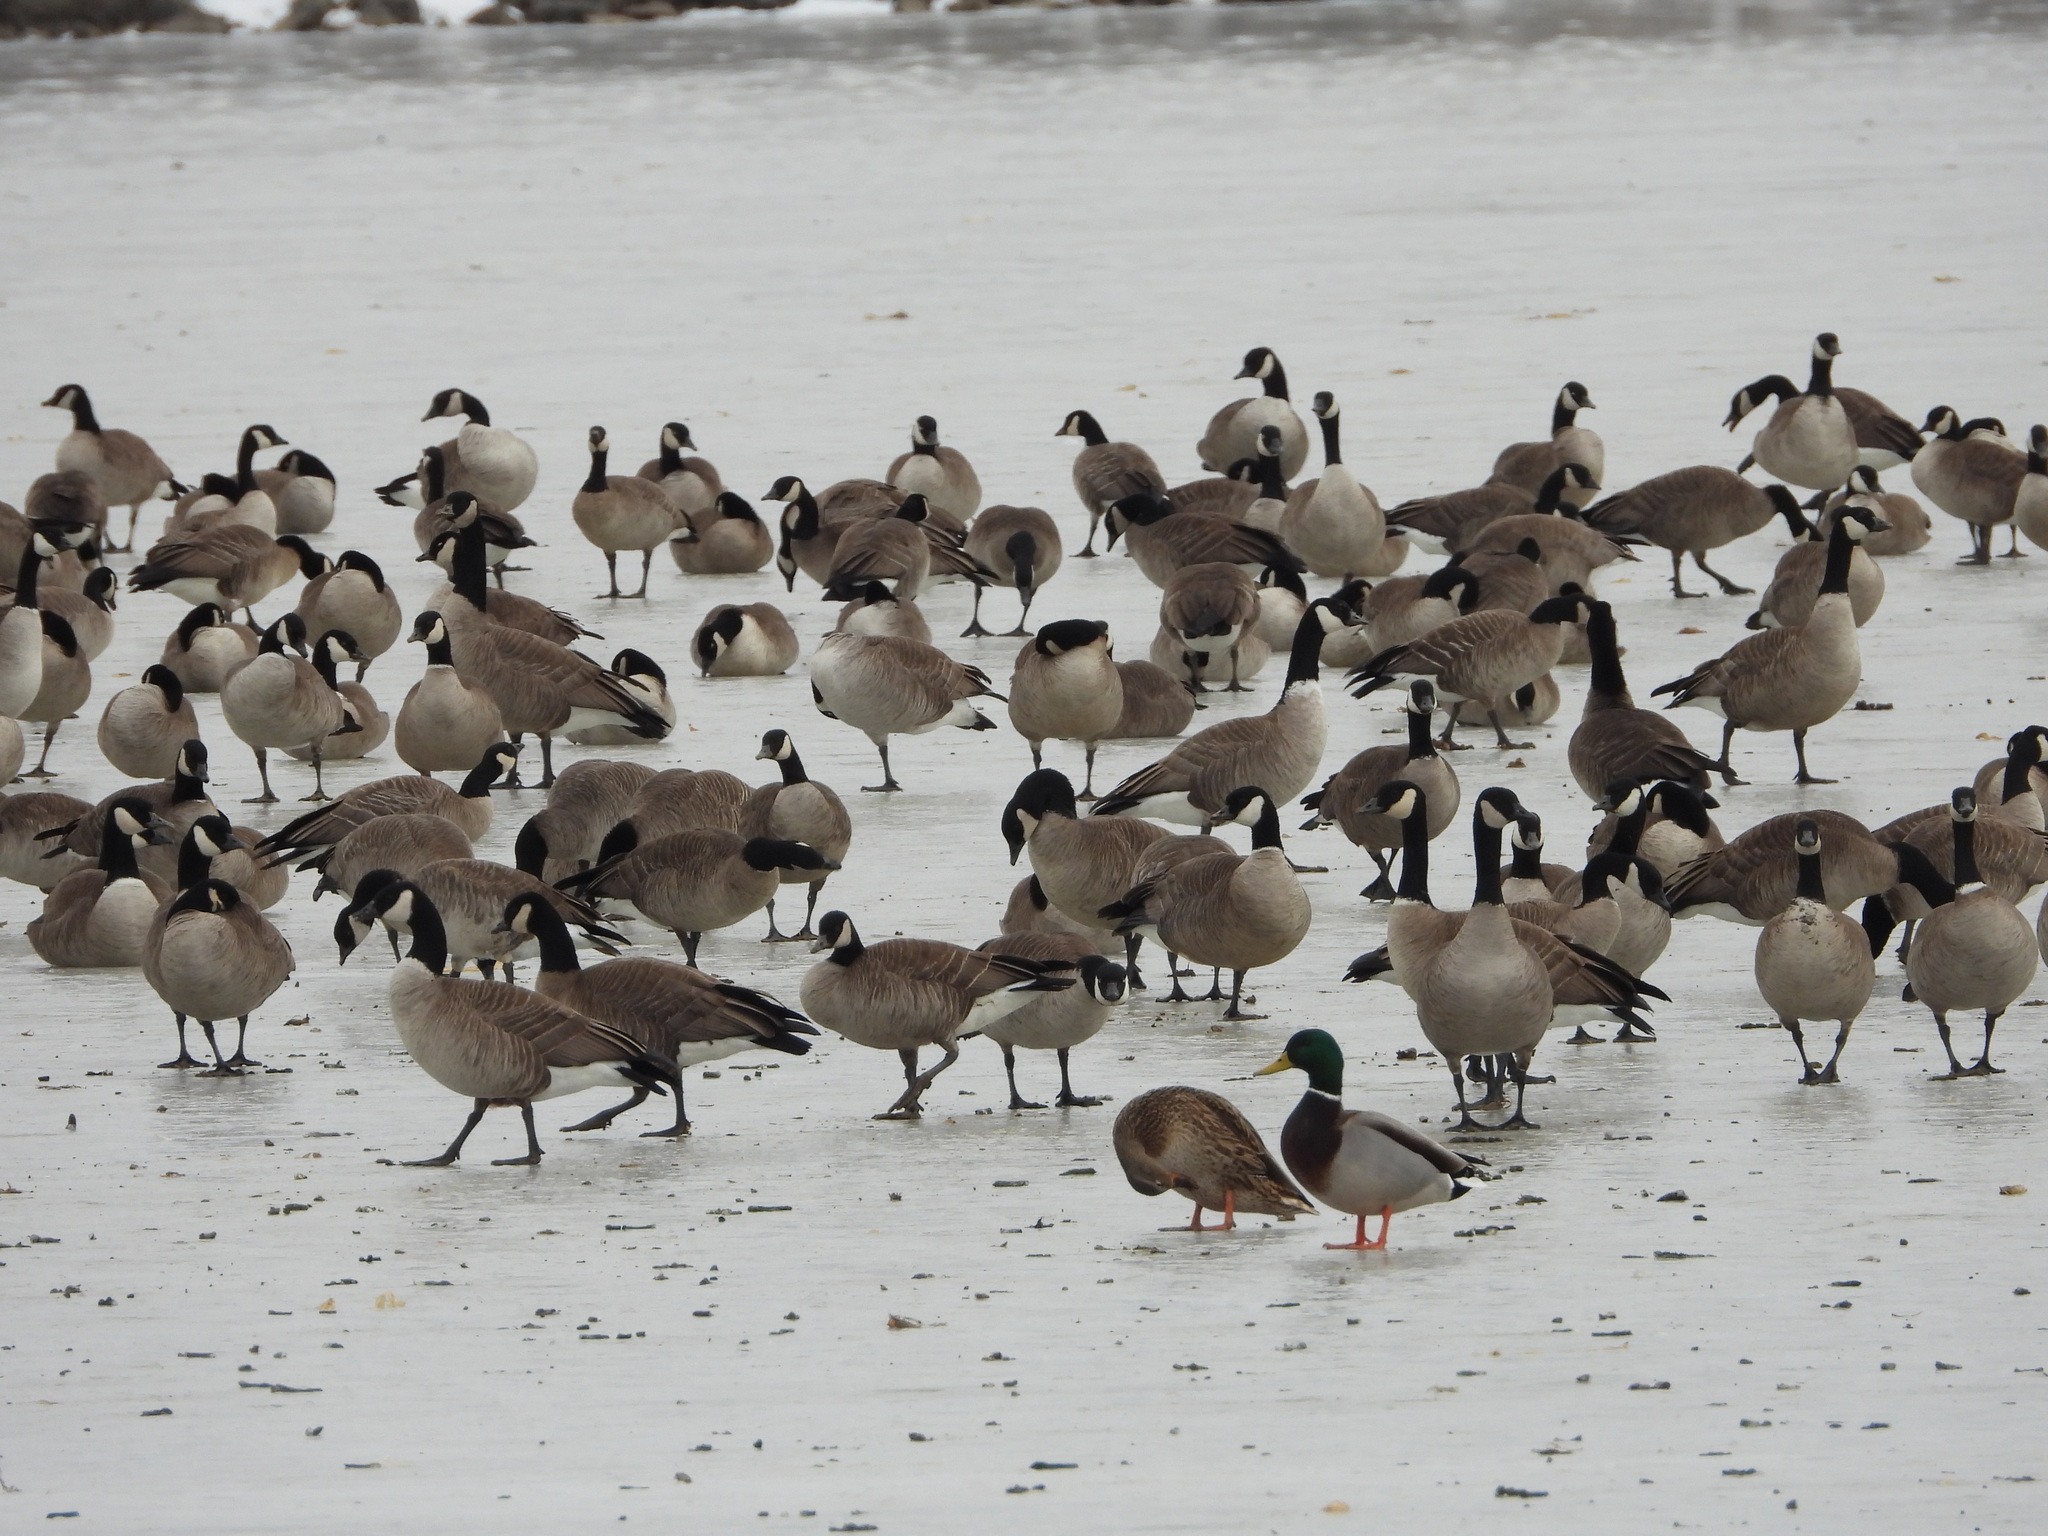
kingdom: Animalia
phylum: Chordata
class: Aves
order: Anseriformes
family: Anatidae
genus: Branta
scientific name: Branta hutchinsii
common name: Cackling goose
